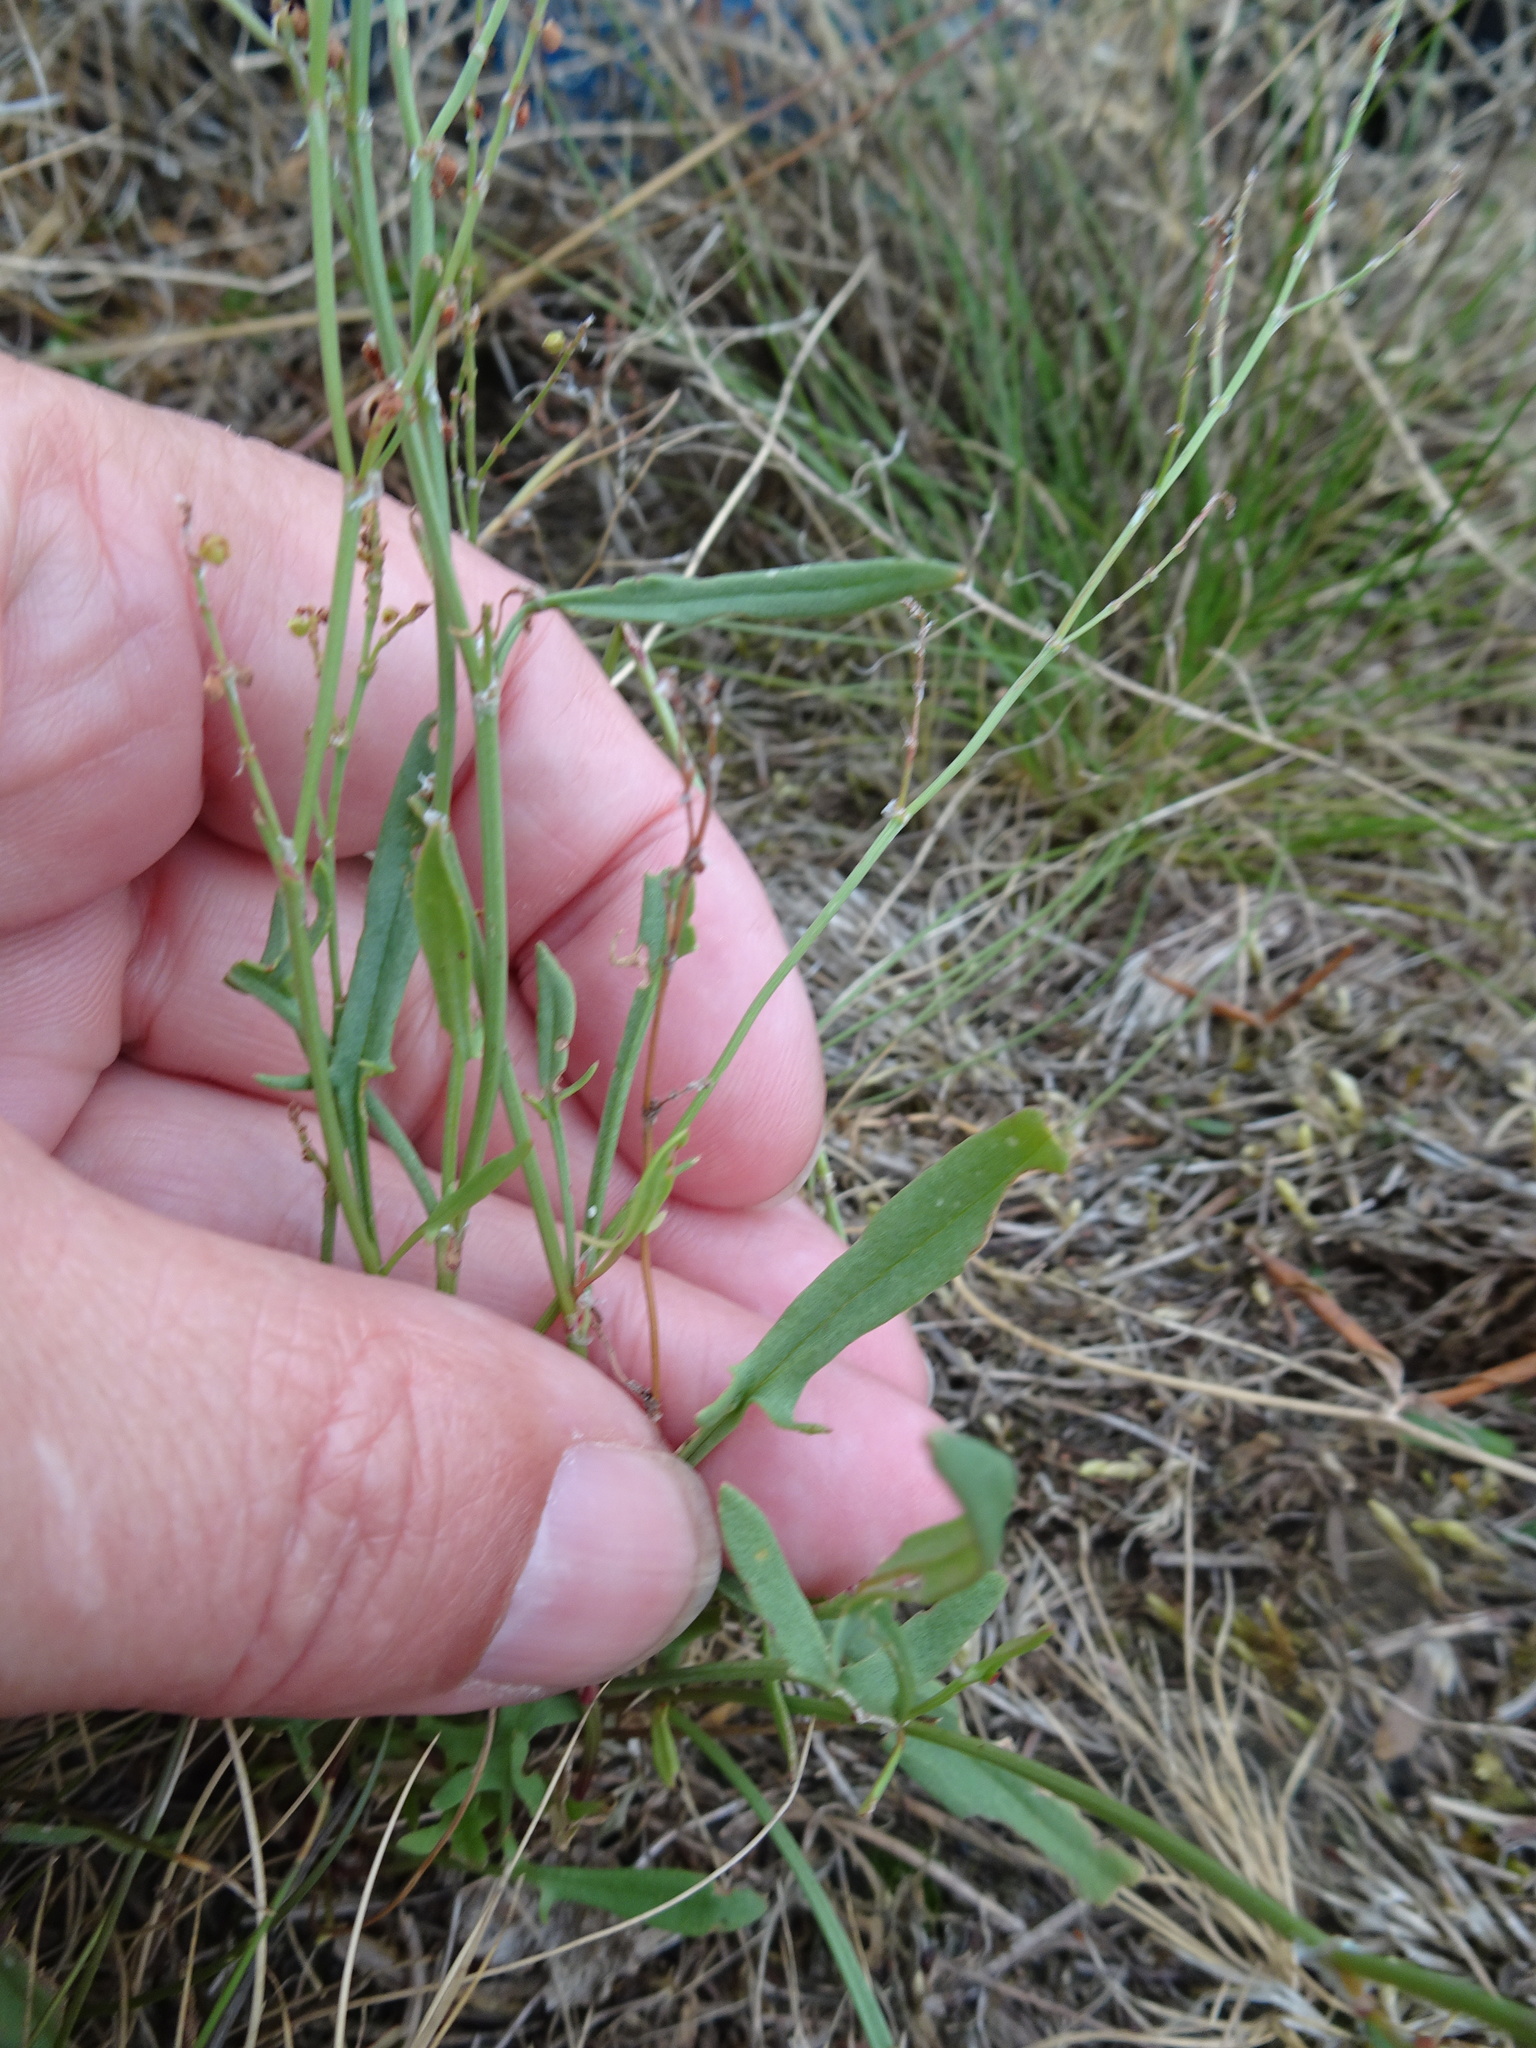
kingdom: Plantae
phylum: Tracheophyta
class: Magnoliopsida
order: Caryophyllales
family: Polygonaceae
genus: Rumex
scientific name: Rumex acetosella
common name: Common sheep sorrel
